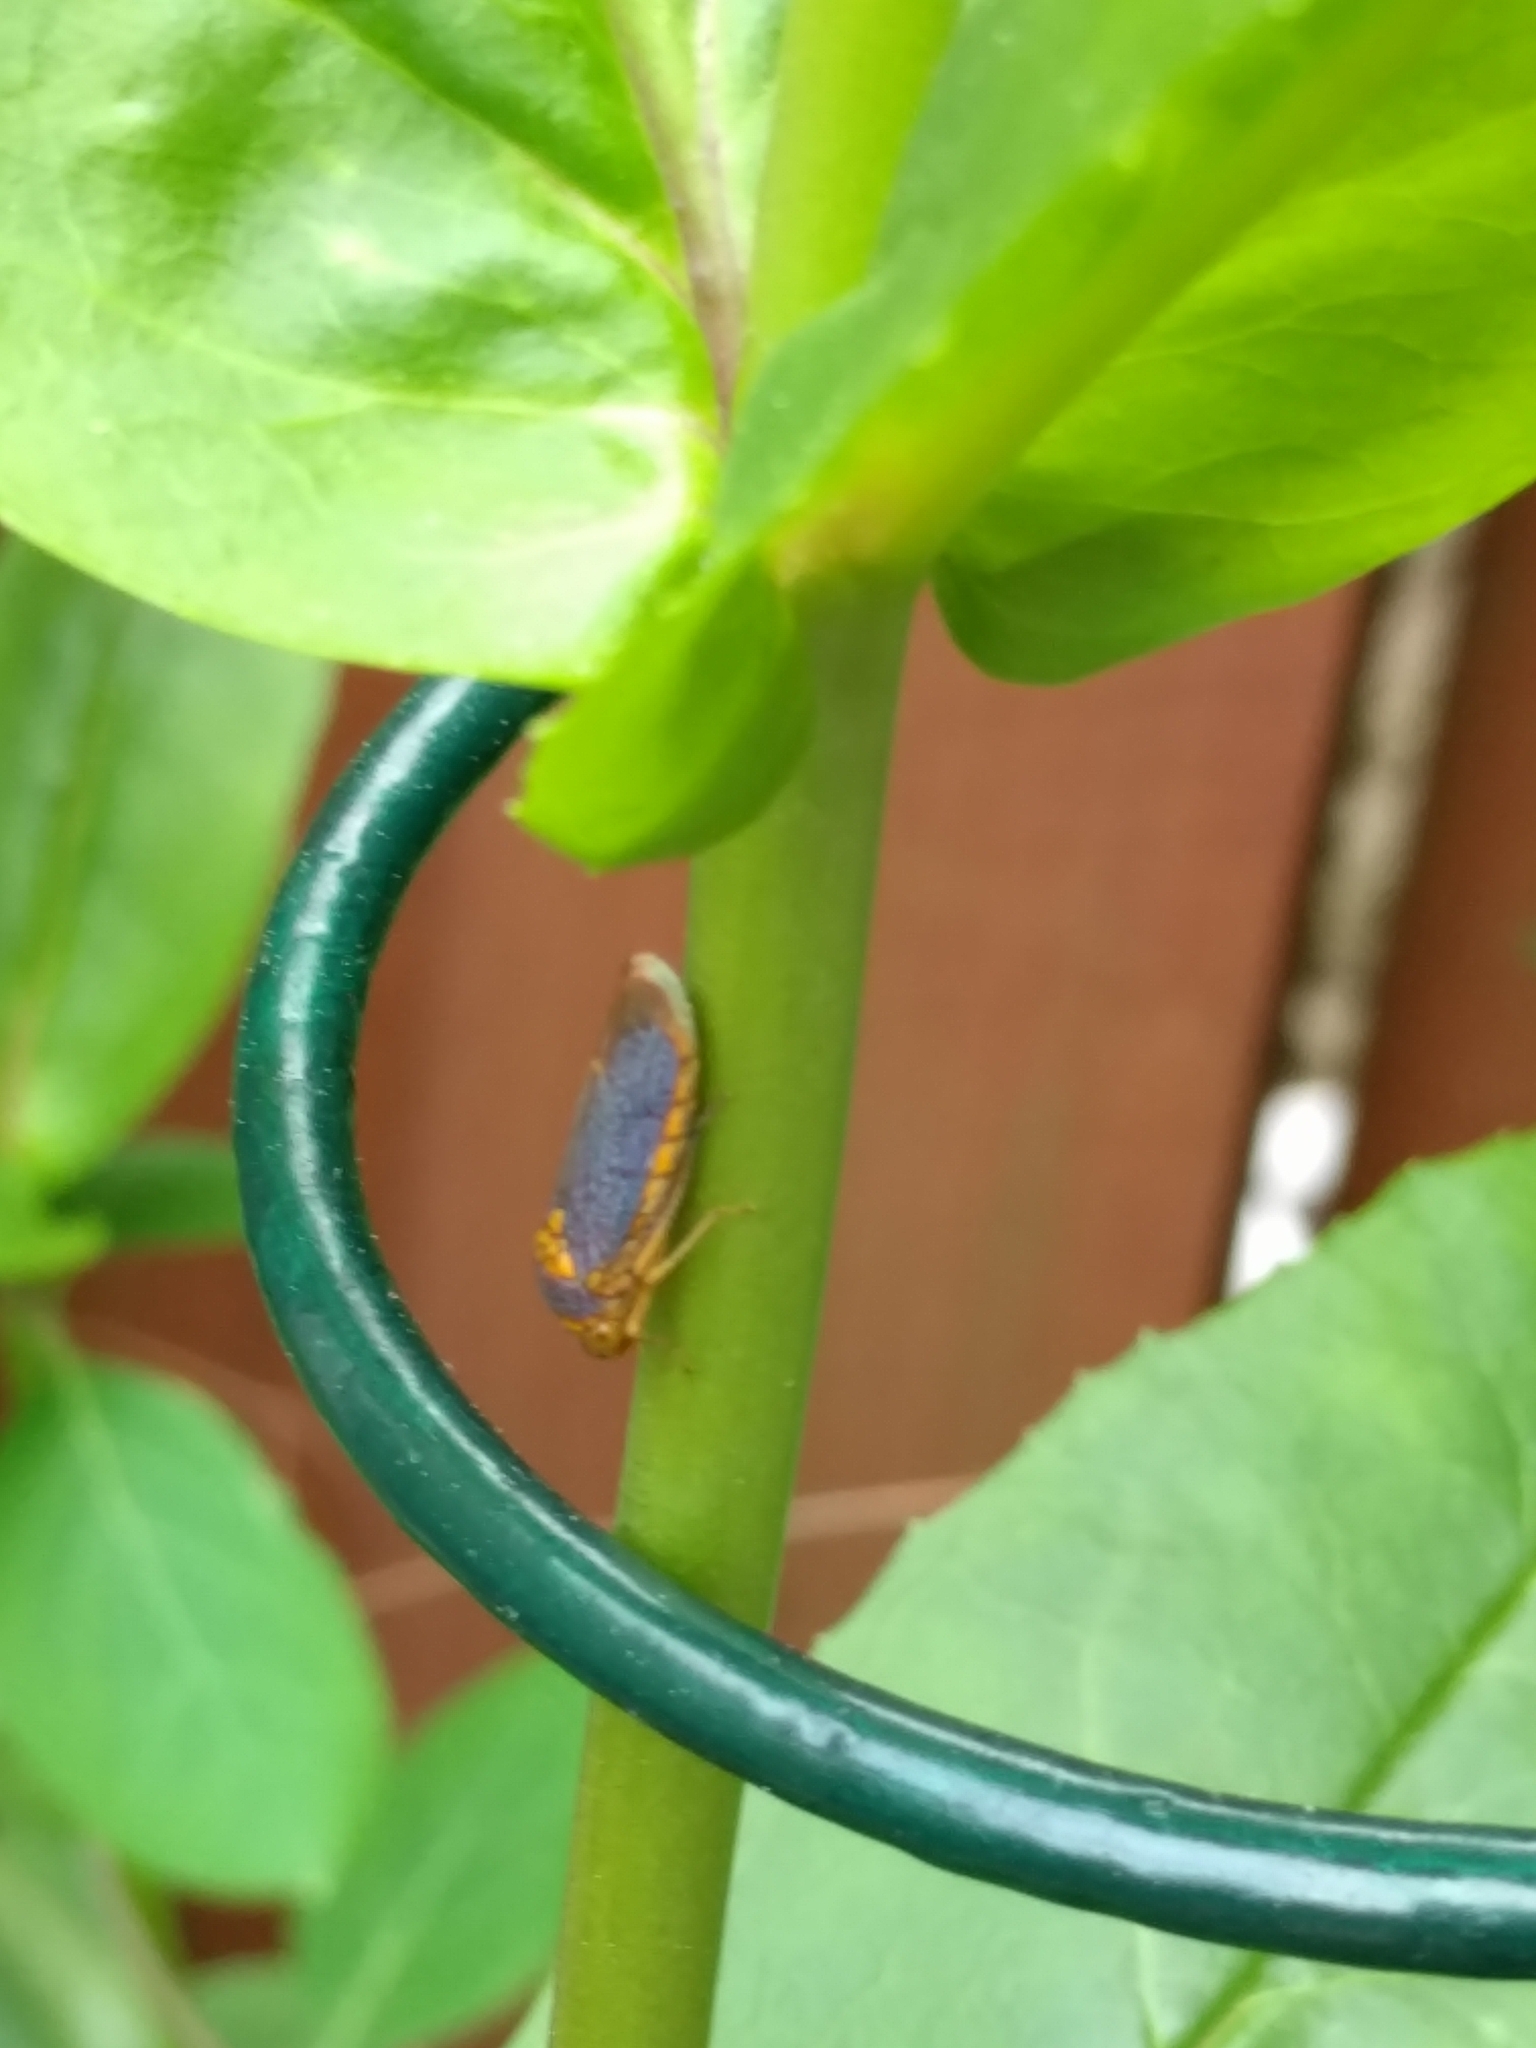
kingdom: Animalia
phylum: Arthropoda
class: Insecta
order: Hemiptera
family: Cicadellidae
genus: Oncometopia
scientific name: Oncometopia orbona
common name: Broad-headed sharpshooter
